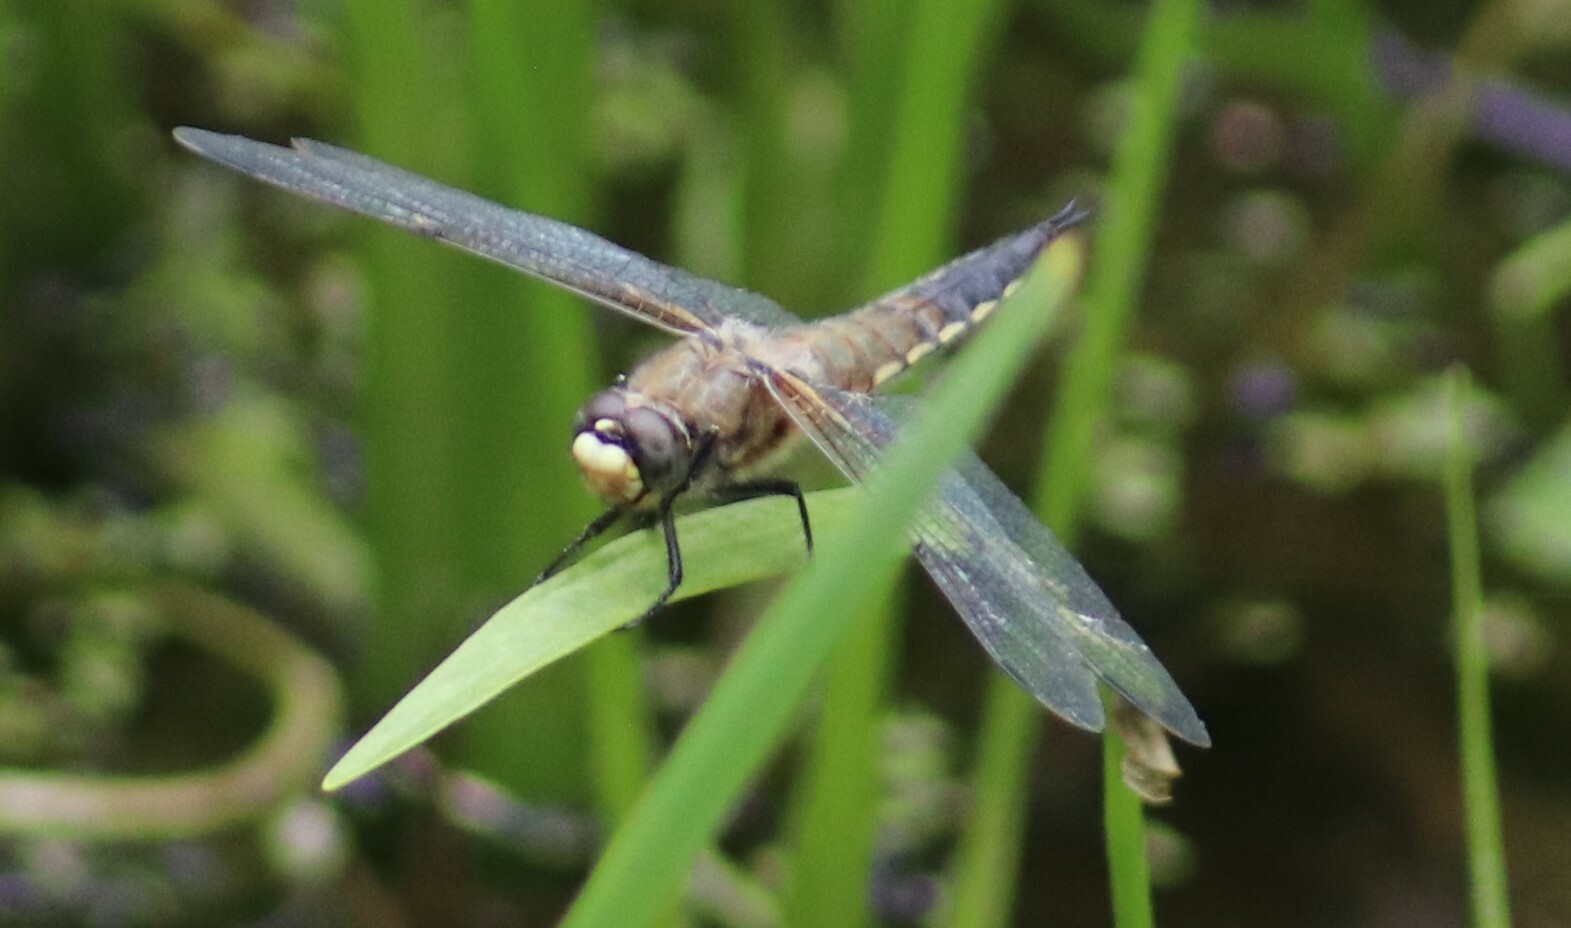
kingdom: Animalia
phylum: Arthropoda
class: Insecta
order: Odonata
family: Libellulidae
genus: Libellula
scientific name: Libellula quadrimaculata
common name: Four-spotted chaser
